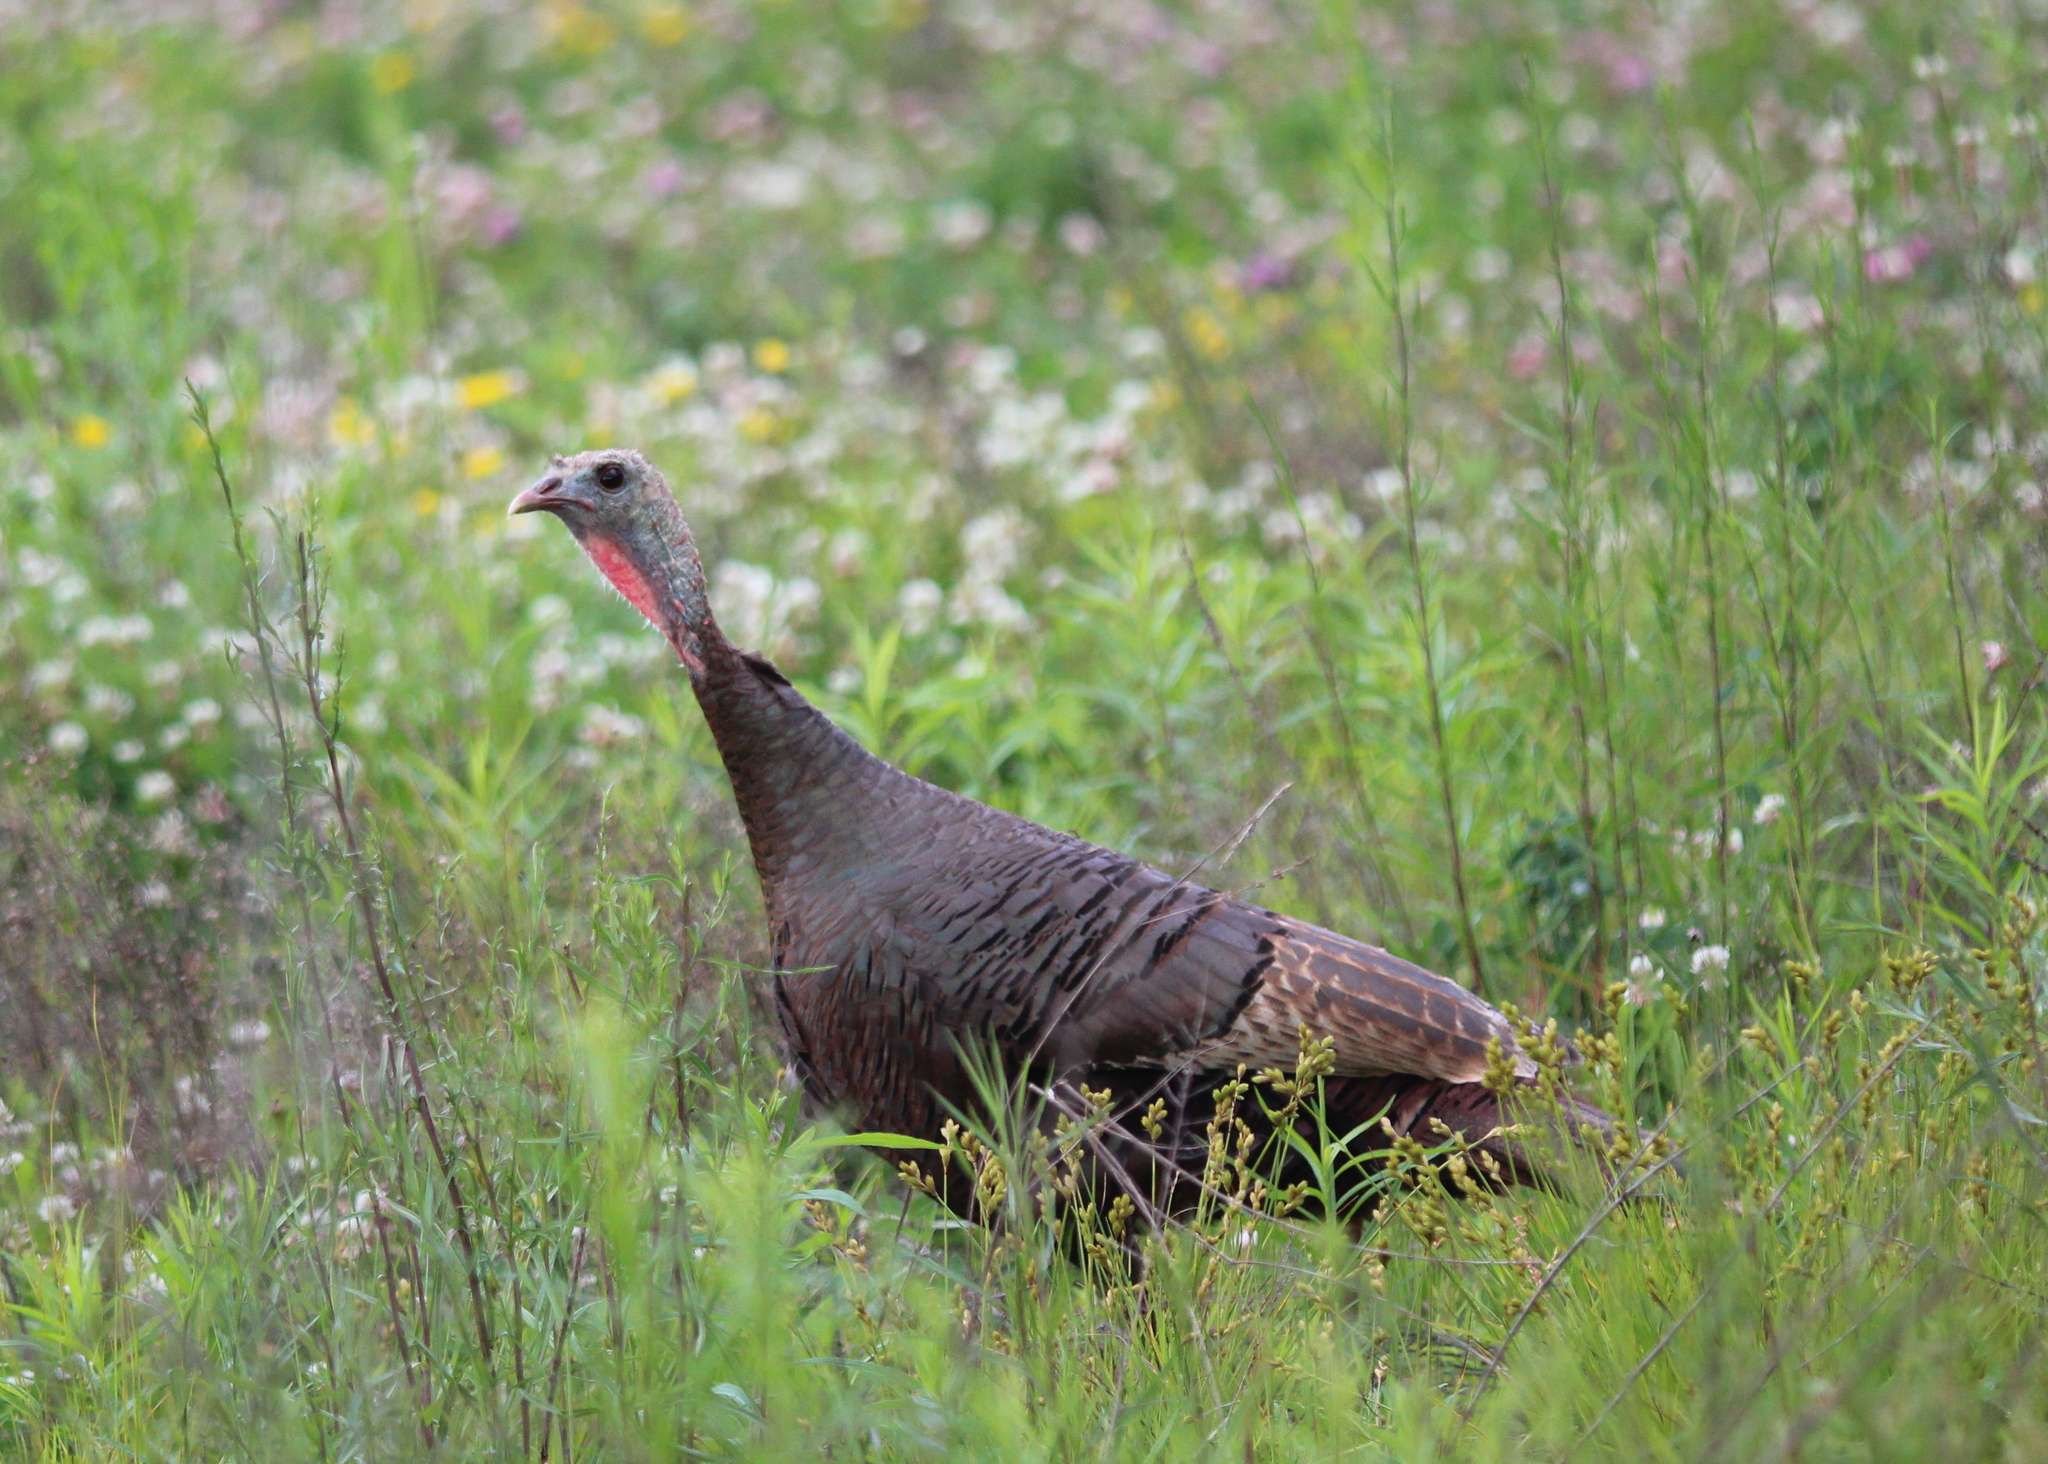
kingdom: Animalia
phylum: Chordata
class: Aves
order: Galliformes
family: Phasianidae
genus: Meleagris
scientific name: Meleagris gallopavo
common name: Wild turkey
